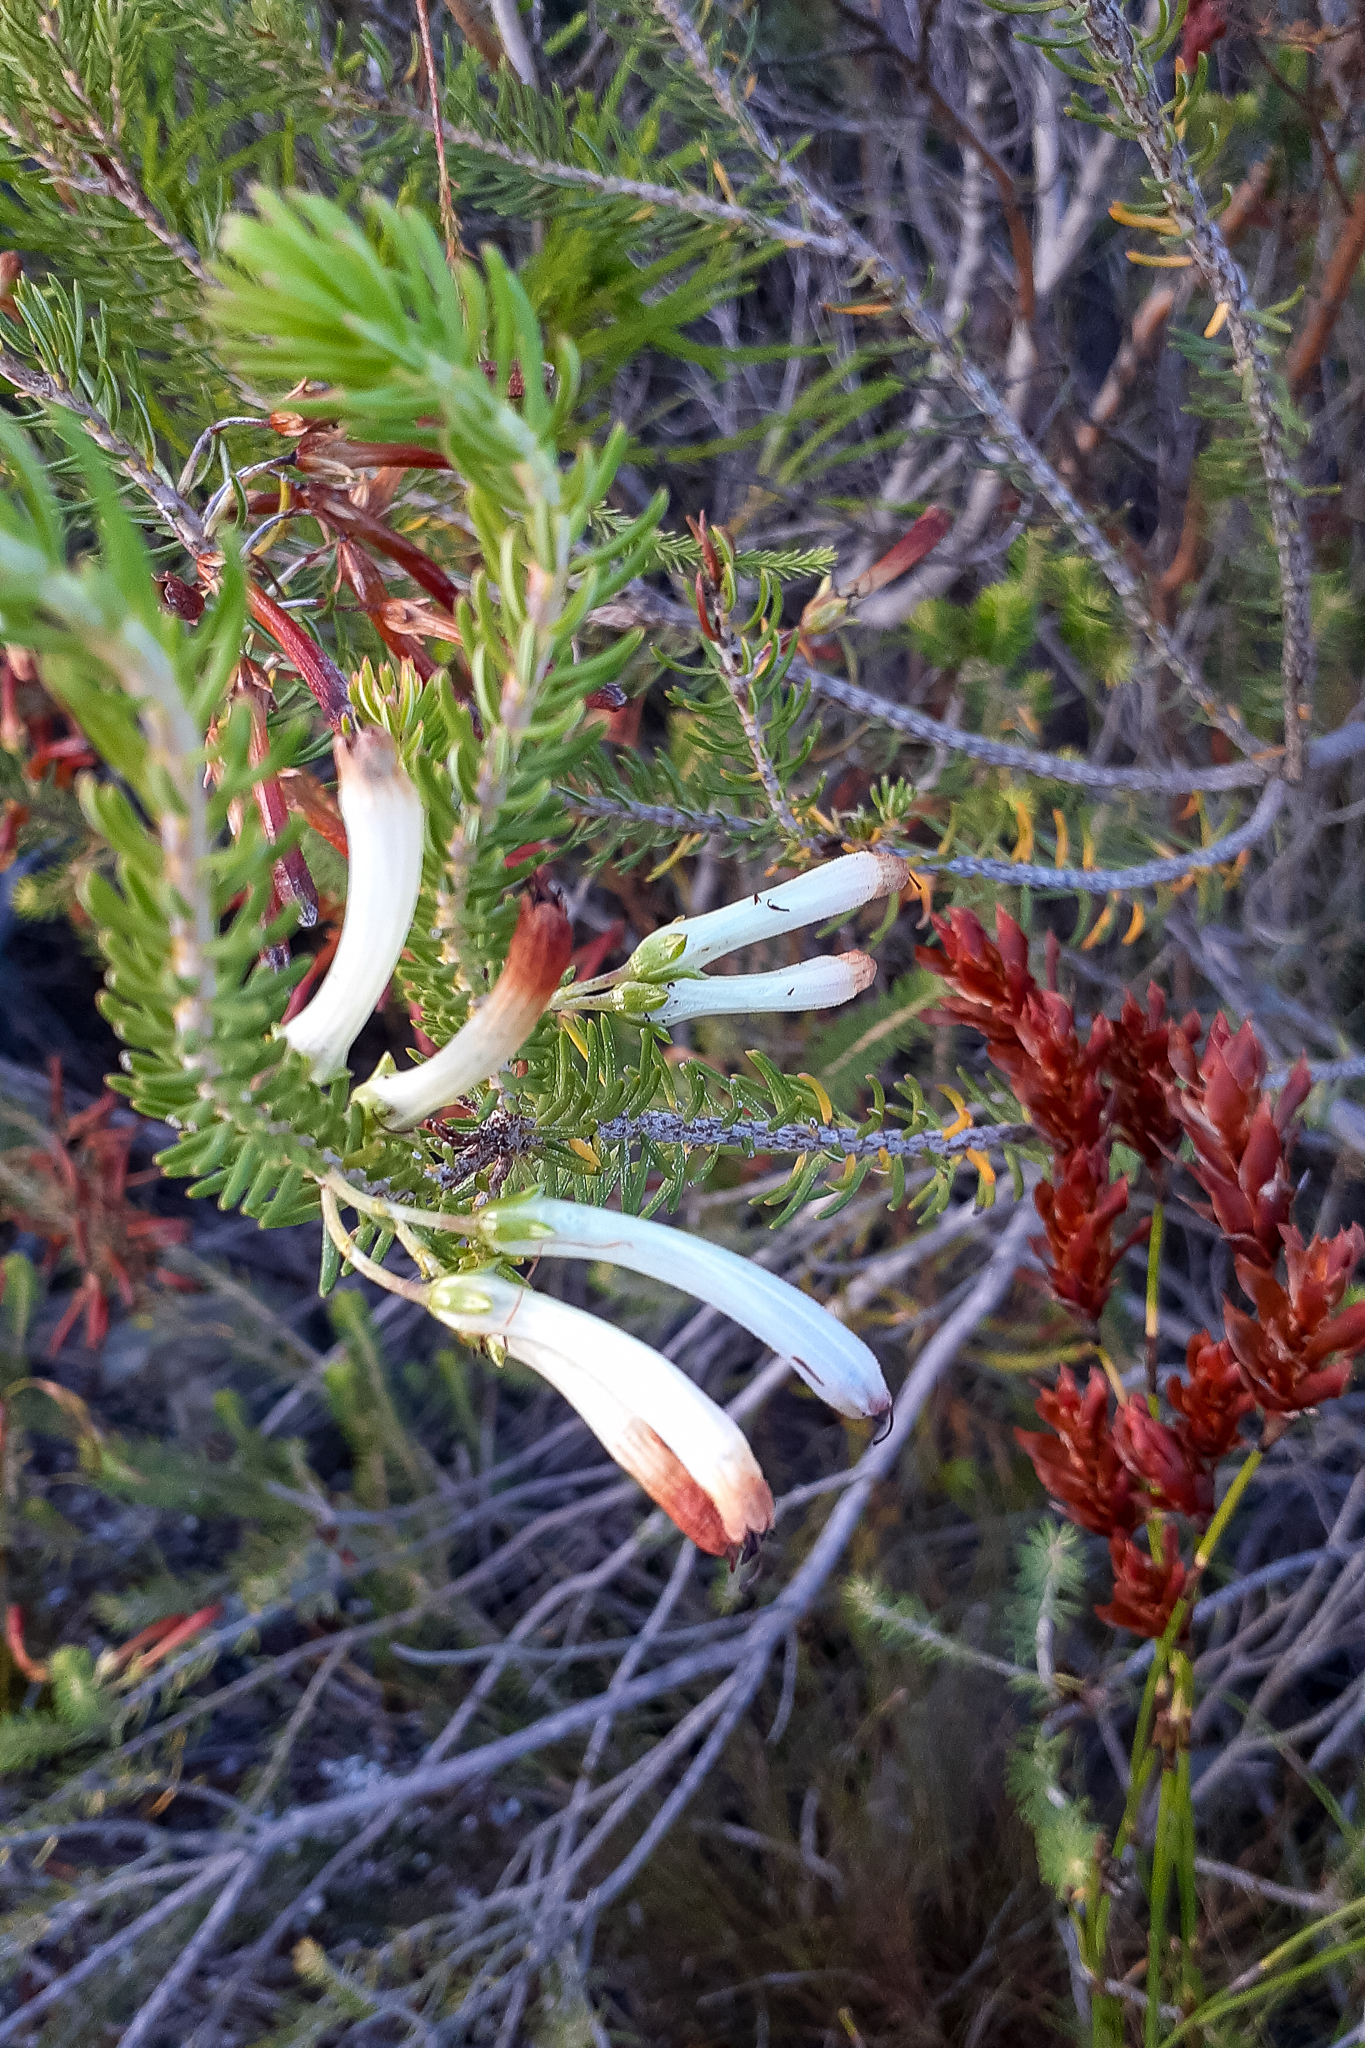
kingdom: Plantae
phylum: Tracheophyta
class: Magnoliopsida
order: Ericales
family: Ericaceae
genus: Erica
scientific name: Erica thomae
